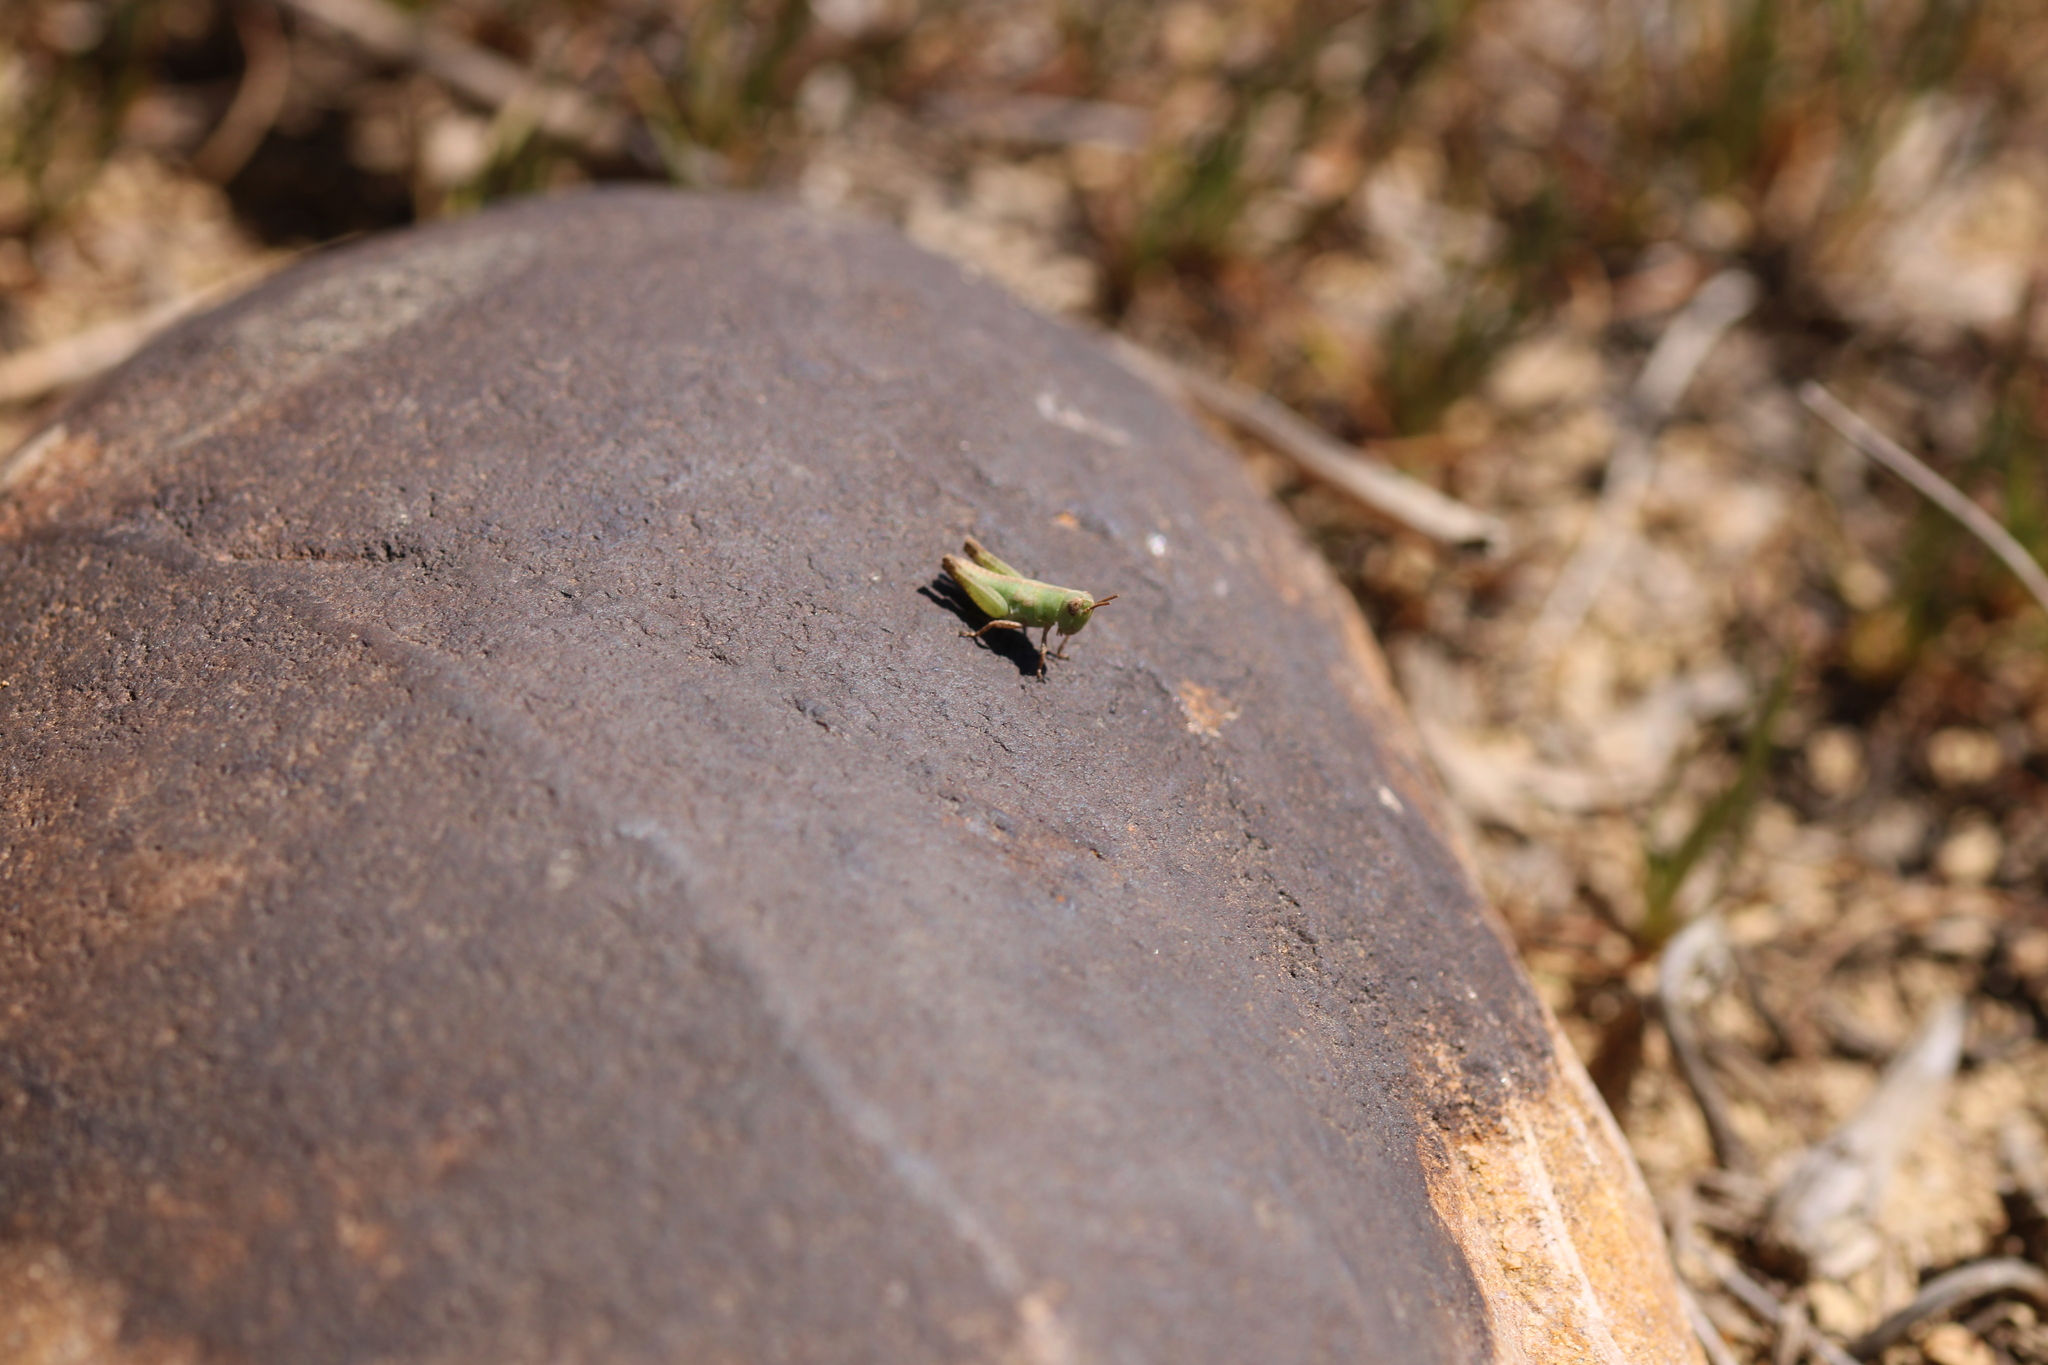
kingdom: Animalia
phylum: Arthropoda
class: Insecta
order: Orthoptera
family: Acrididae
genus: Aiolopus
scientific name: Aiolopus strepens
